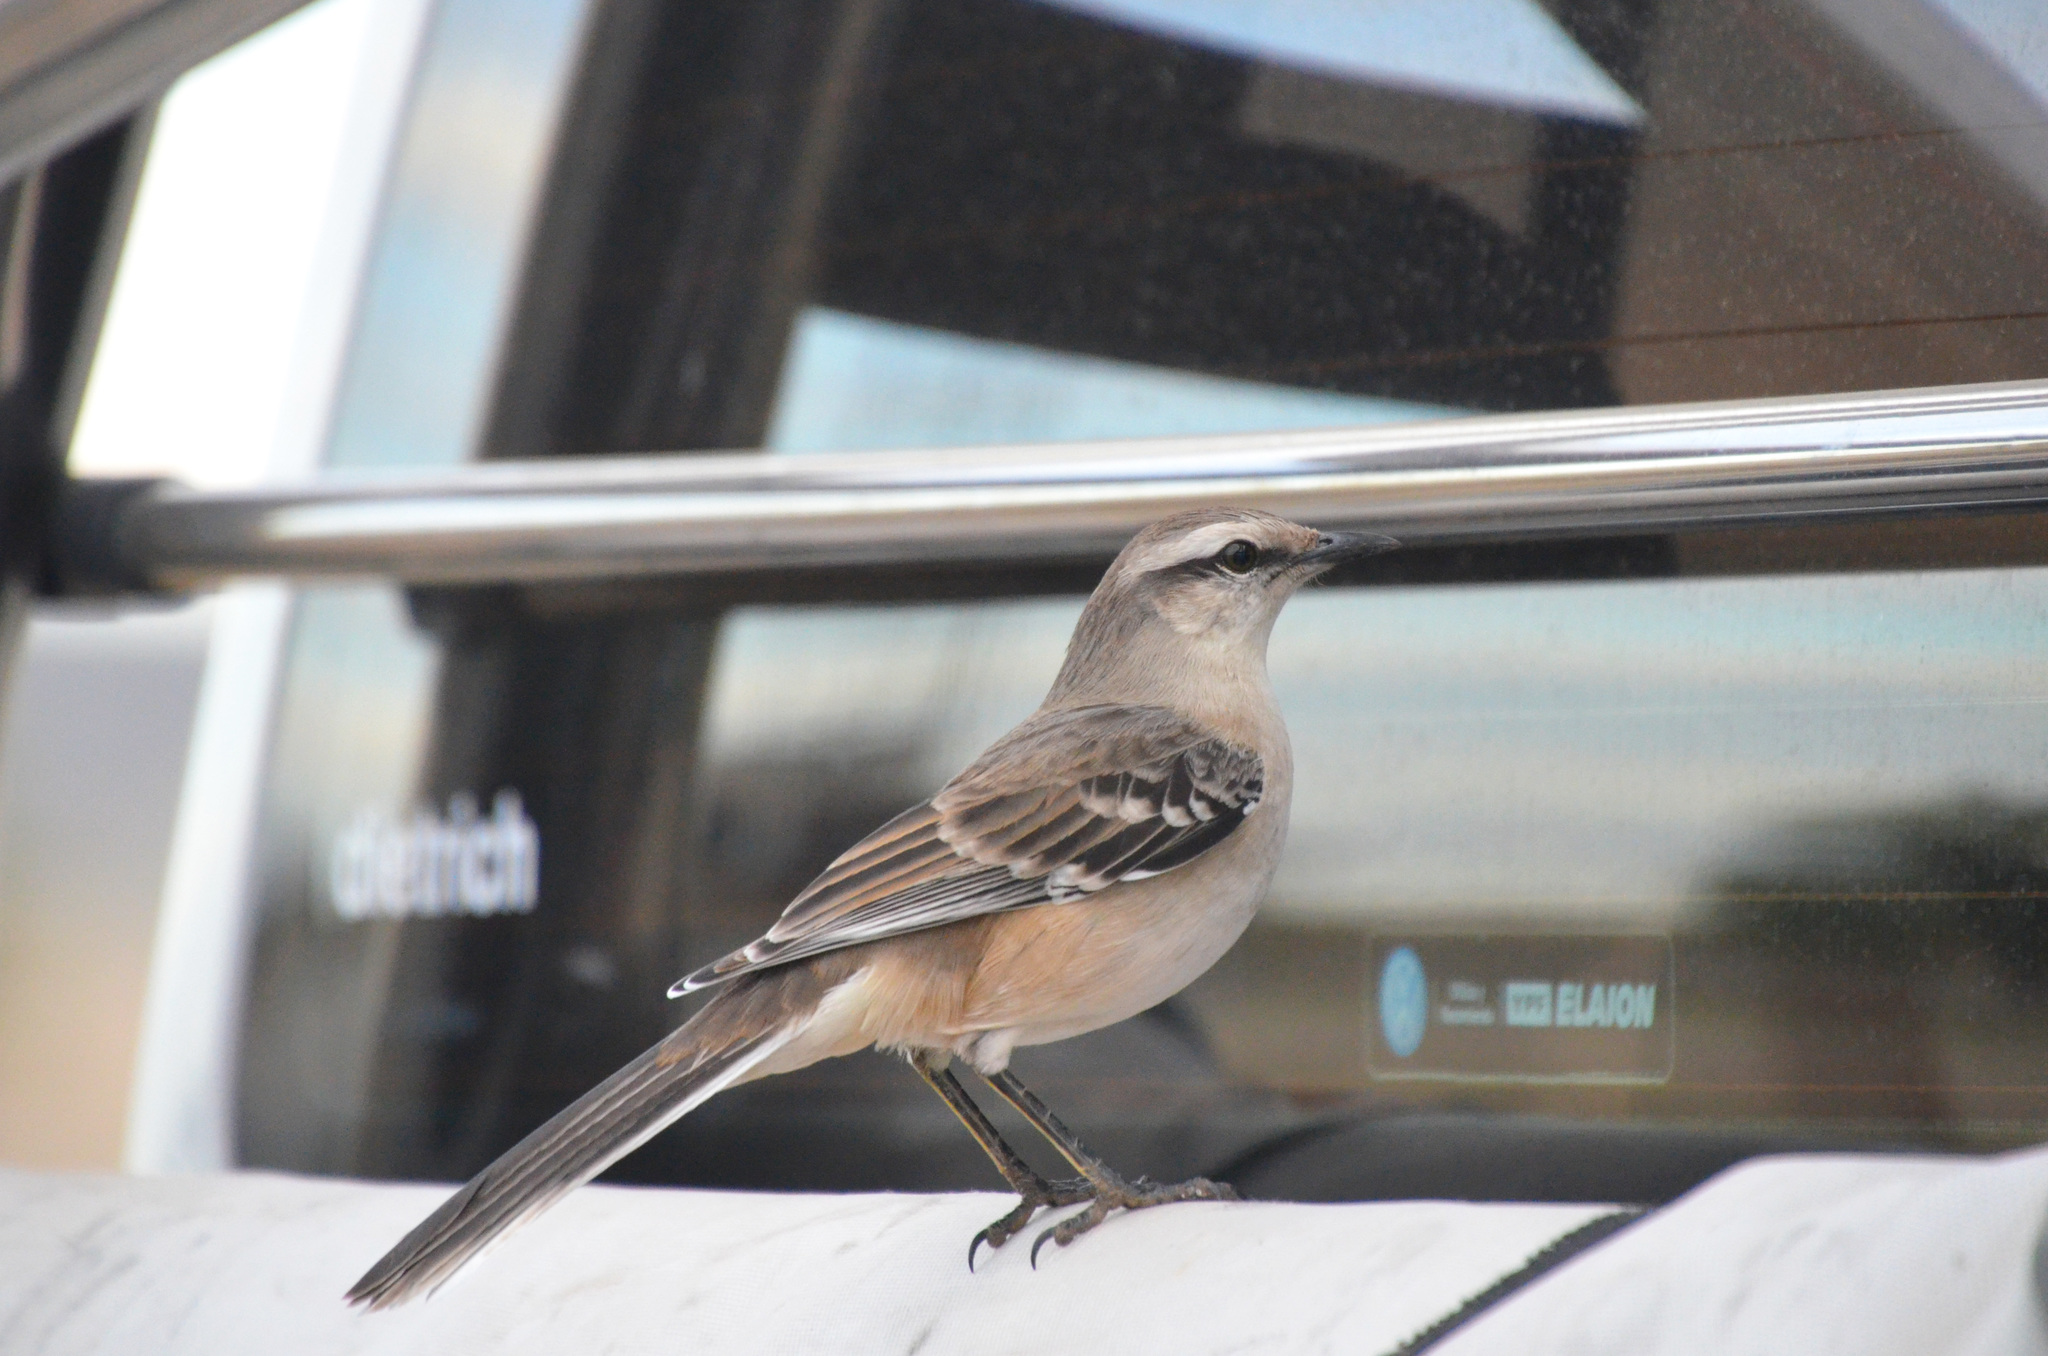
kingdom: Animalia
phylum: Chordata
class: Aves
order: Passeriformes
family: Mimidae
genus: Mimus
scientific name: Mimus saturninus
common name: Chalk-browed mockingbird
